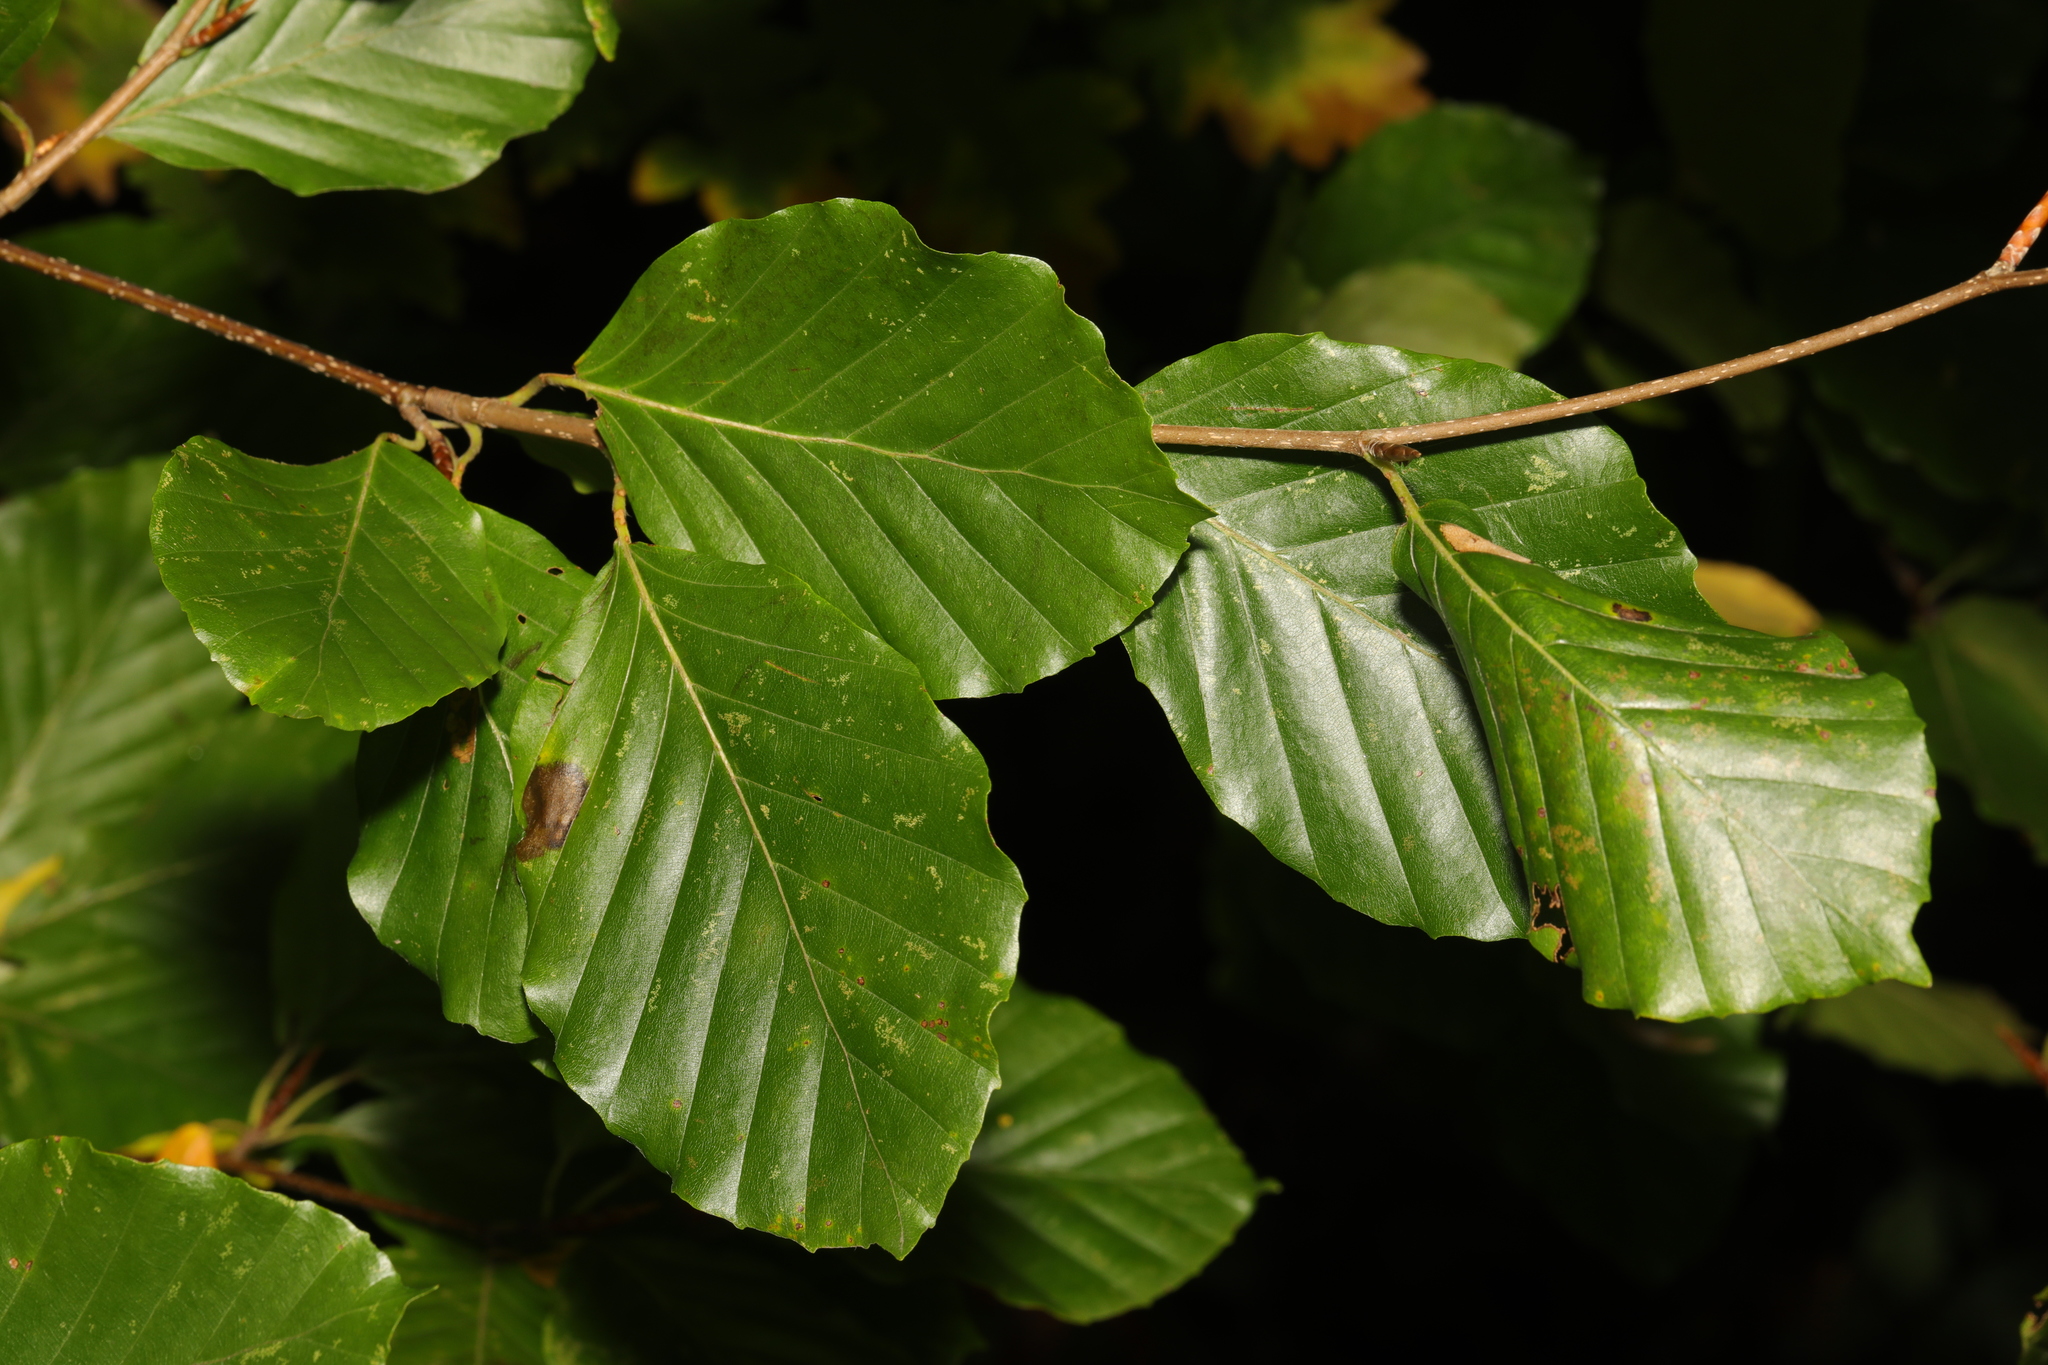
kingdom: Plantae
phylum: Tracheophyta
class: Magnoliopsida
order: Fagales
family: Fagaceae
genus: Fagus
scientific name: Fagus sylvatica
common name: Beech
